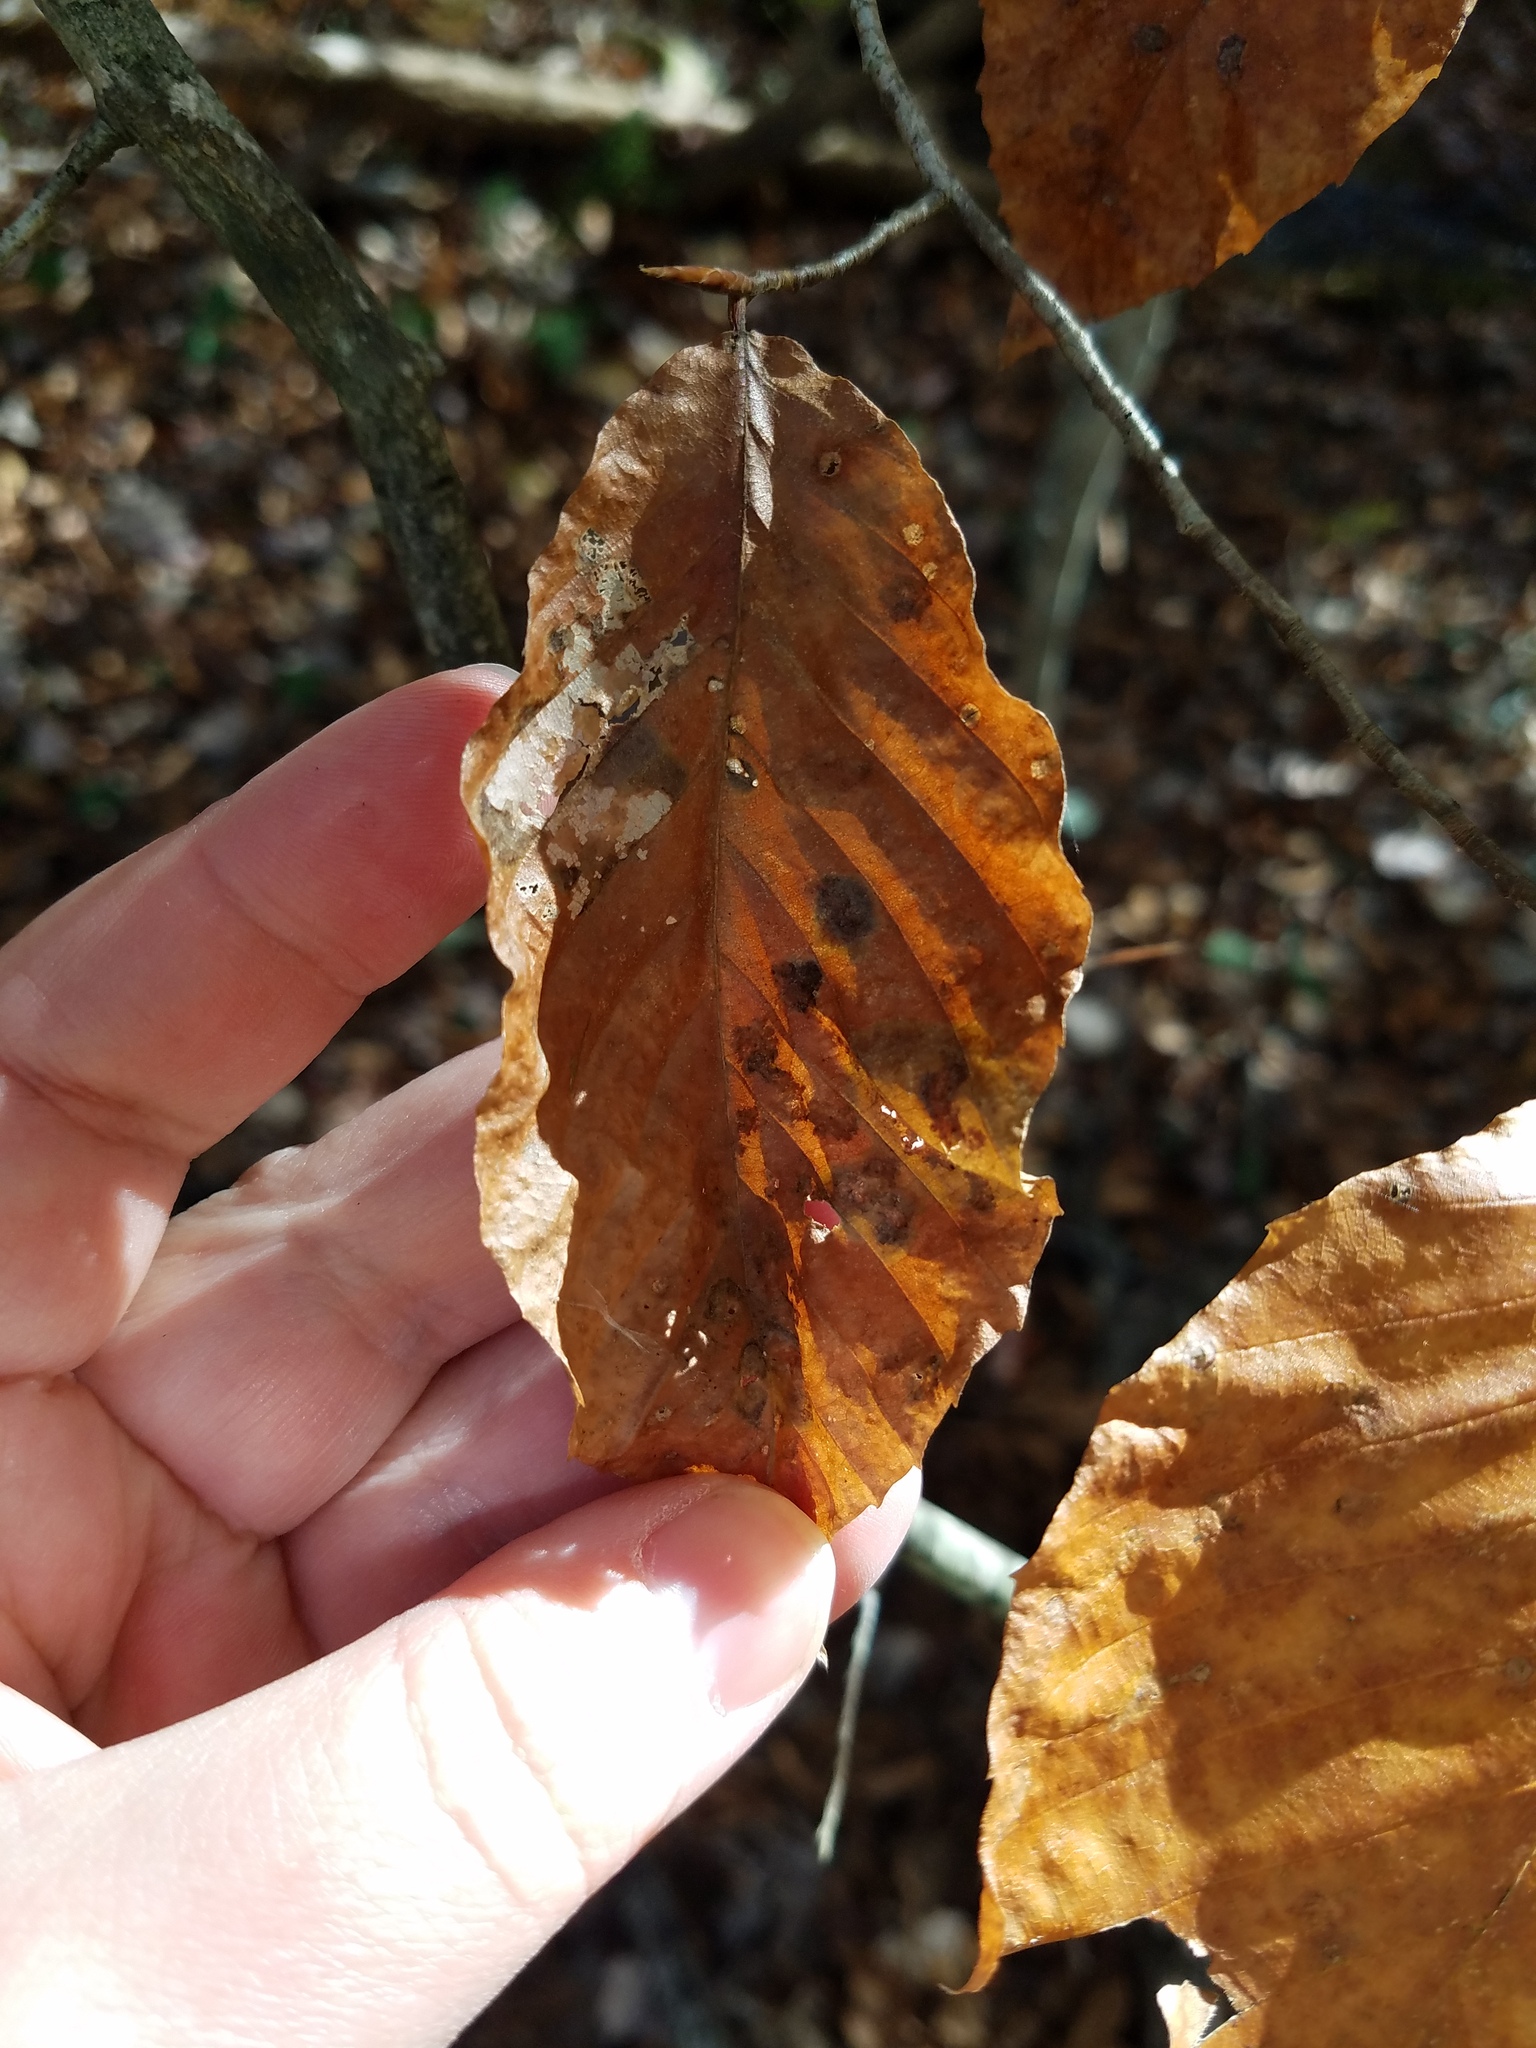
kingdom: Plantae
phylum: Tracheophyta
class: Magnoliopsida
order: Fagales
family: Fagaceae
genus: Fagus
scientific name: Fagus grandifolia
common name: American beech
